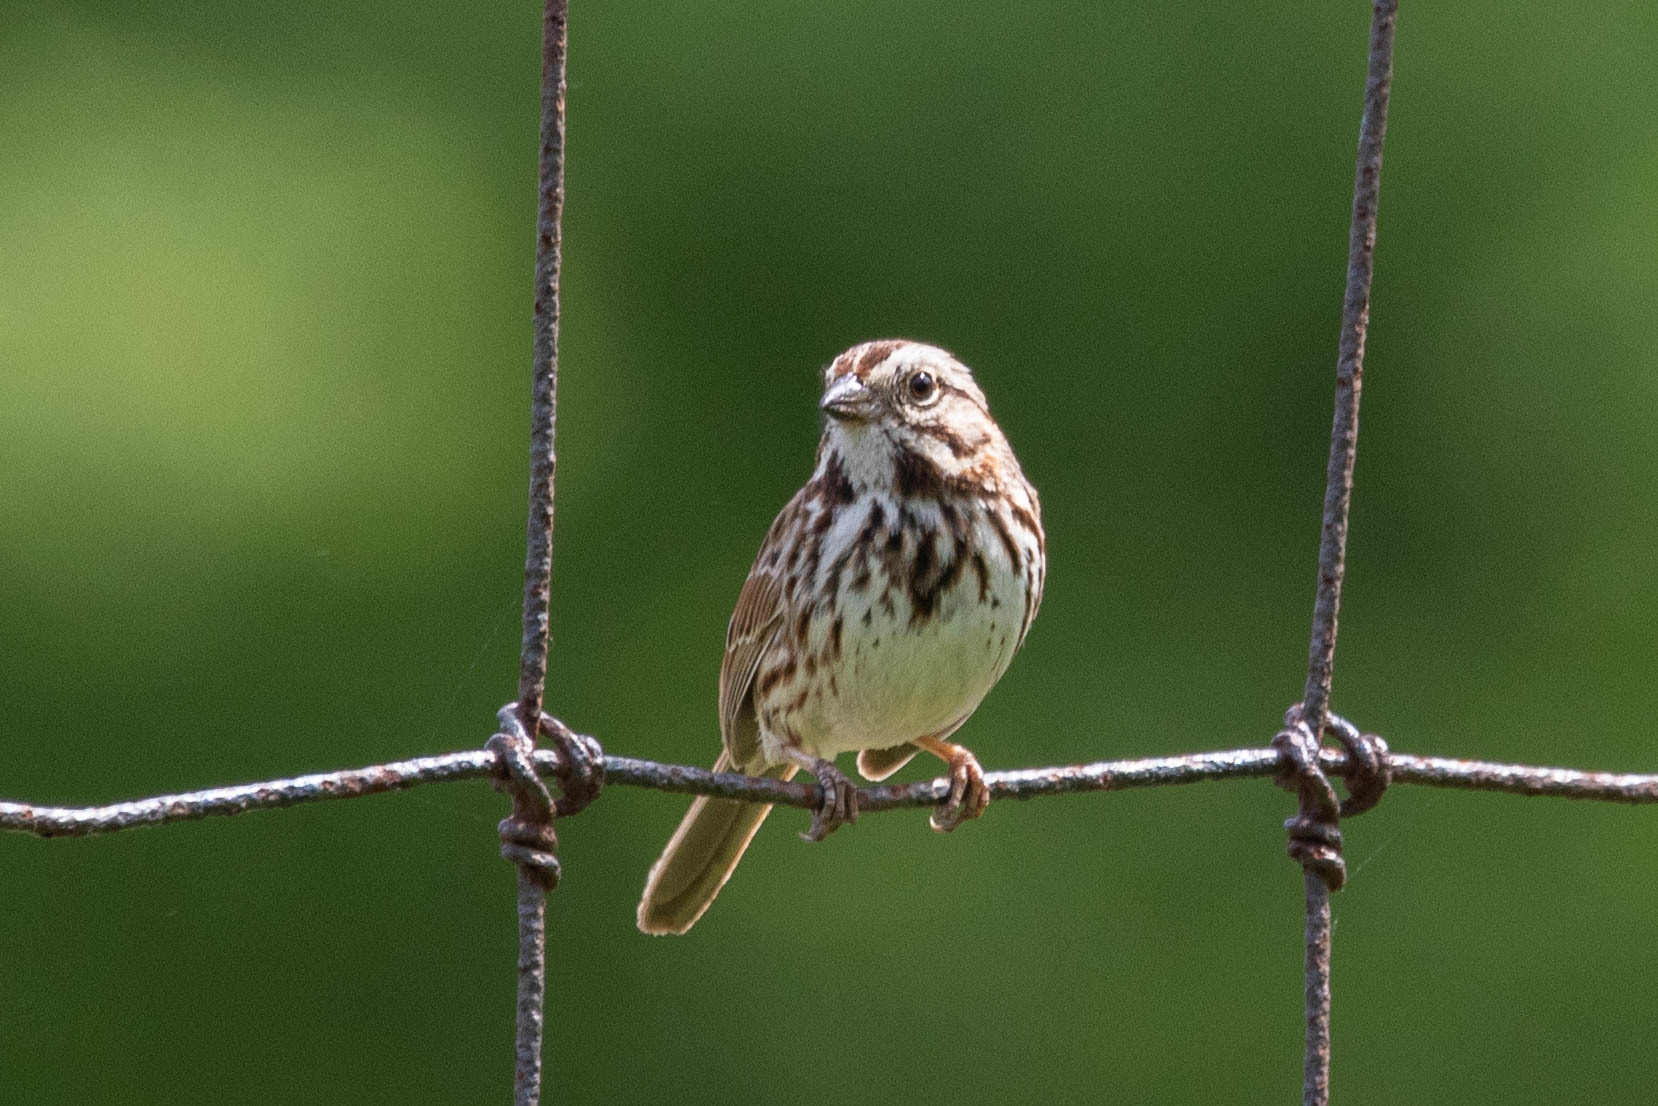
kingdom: Animalia
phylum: Chordata
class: Aves
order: Passeriformes
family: Passerellidae
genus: Melospiza
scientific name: Melospiza melodia
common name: Song sparrow
